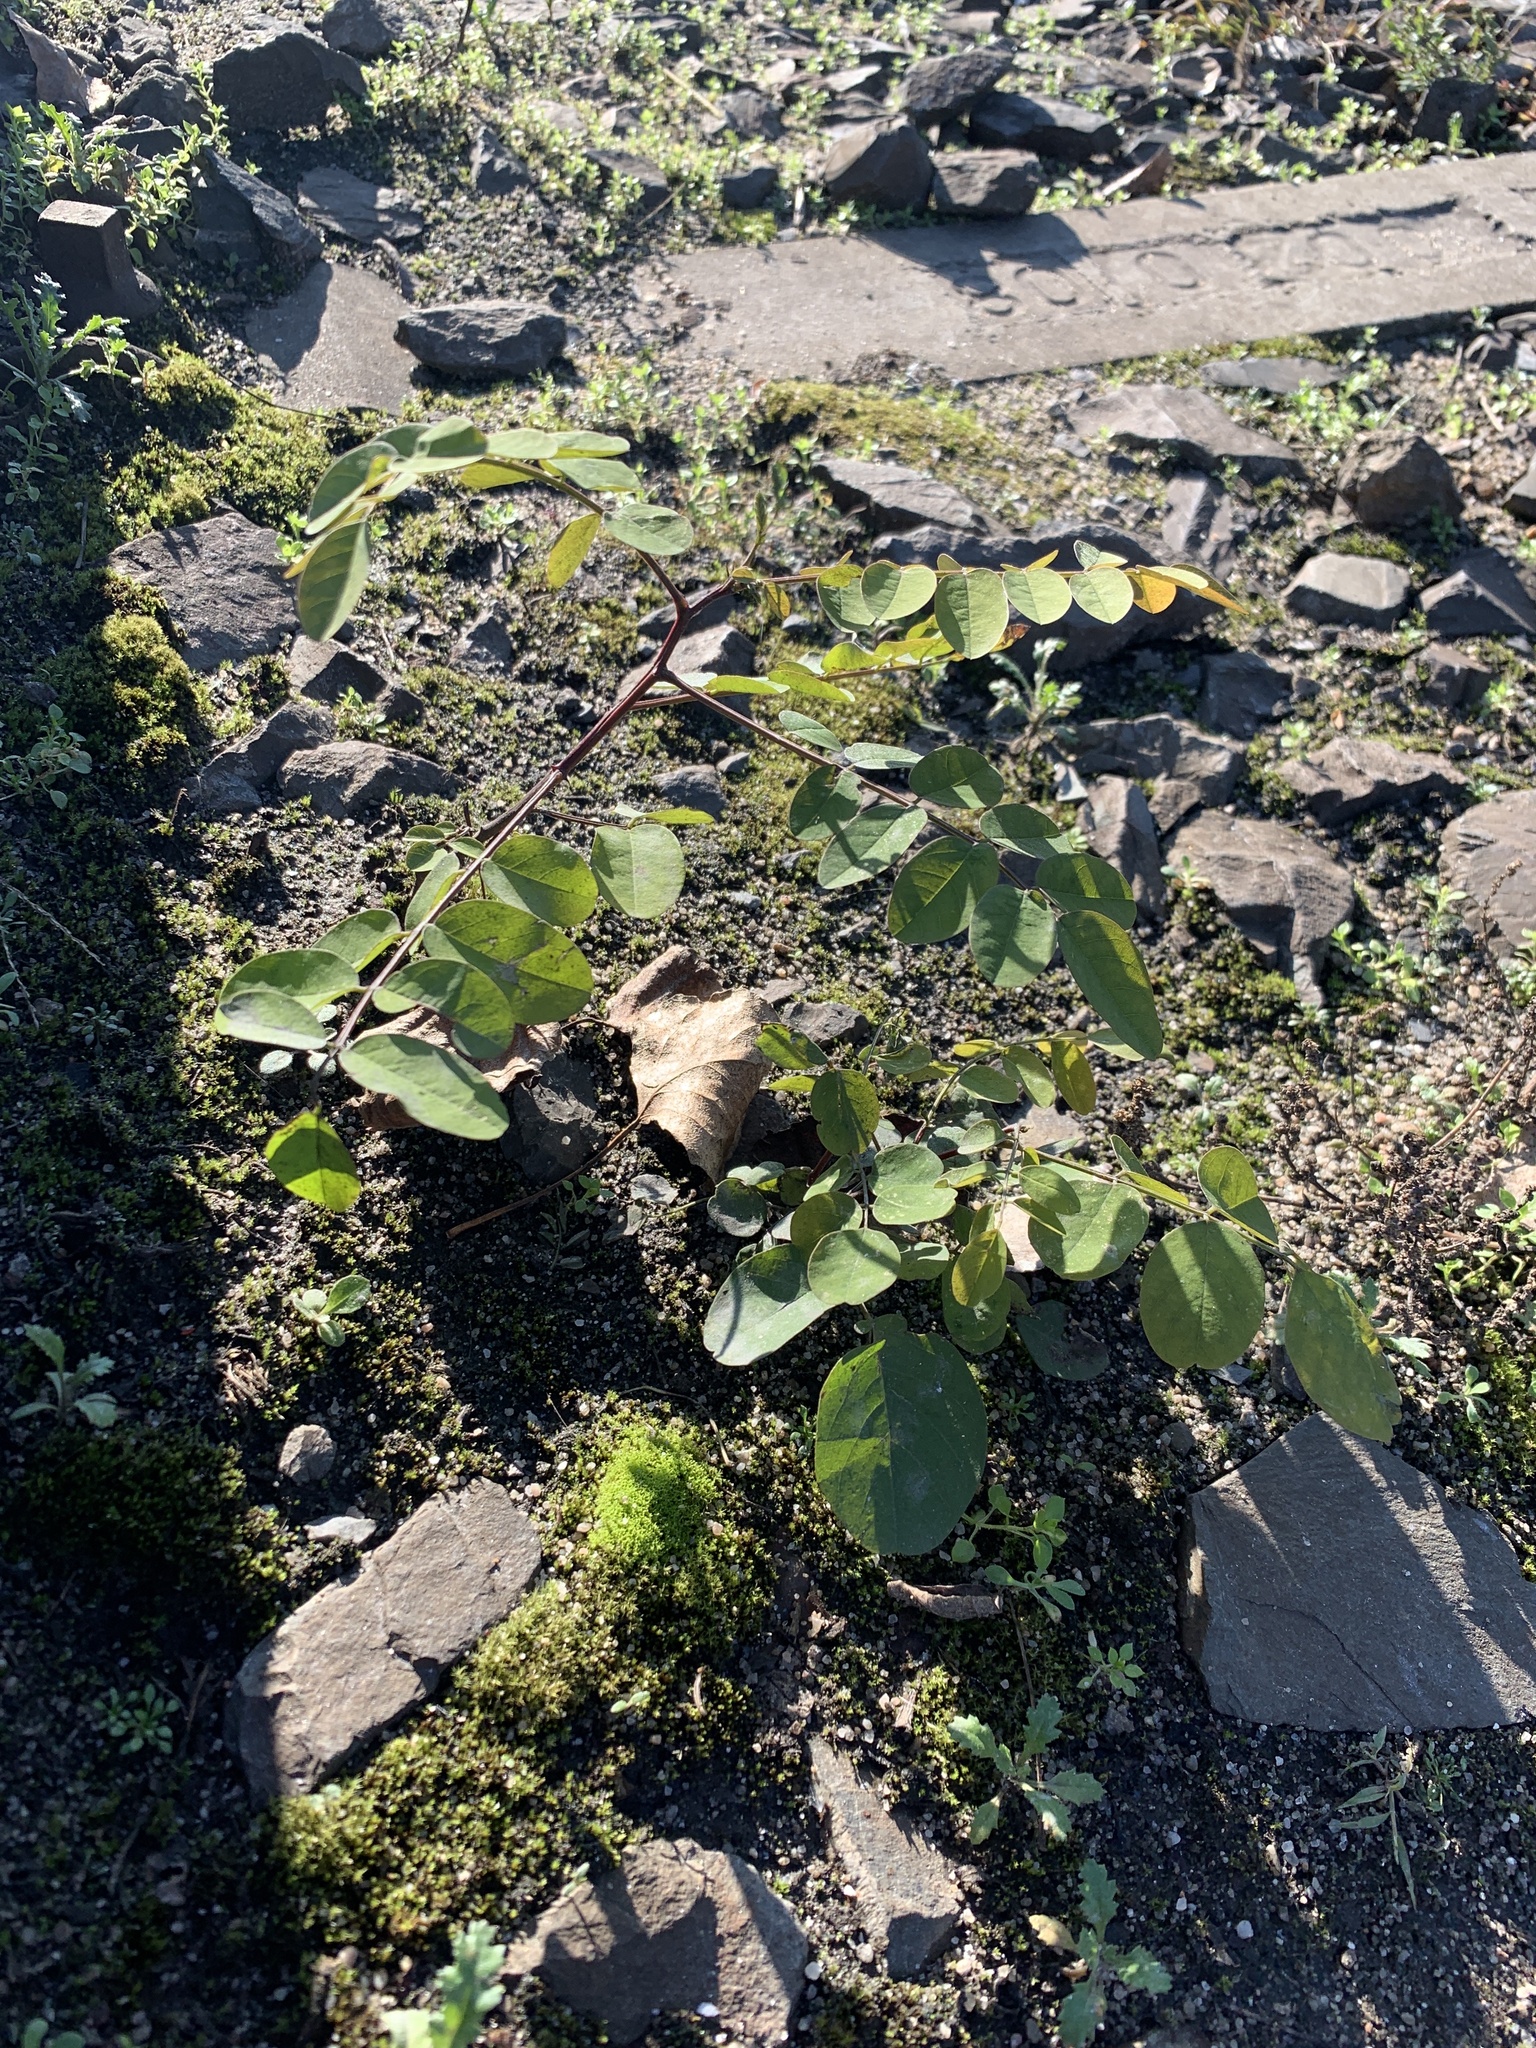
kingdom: Plantae
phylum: Tracheophyta
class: Magnoliopsida
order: Fabales
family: Fabaceae
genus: Robinia
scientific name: Robinia pseudoacacia
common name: Black locust
